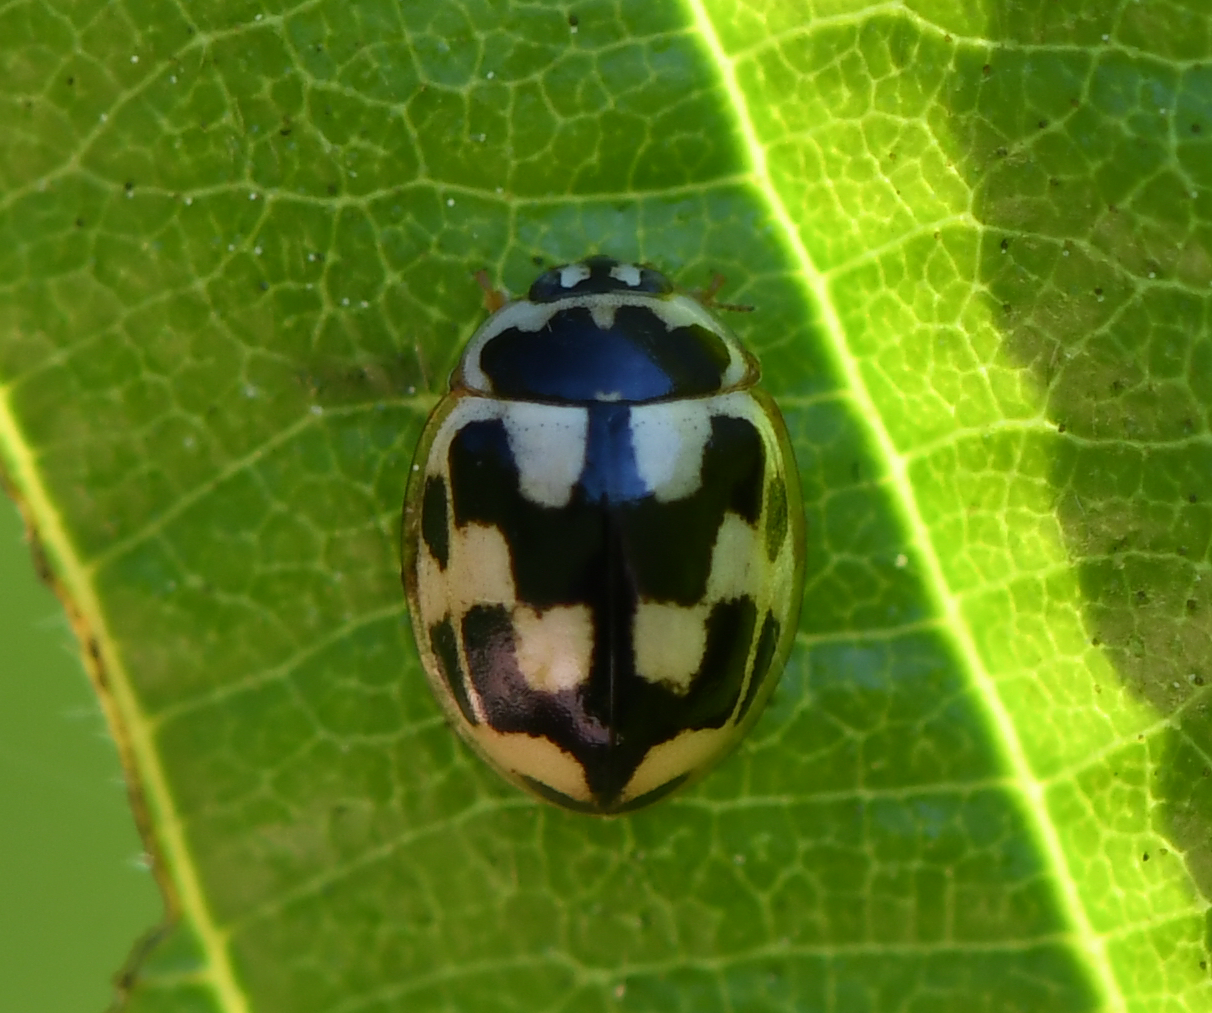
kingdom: Animalia
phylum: Arthropoda
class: Insecta
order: Coleoptera
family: Coccinellidae
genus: Propylaea
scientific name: Propylaea quatuordecimpunctata
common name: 14-spotted ladybird beetle
